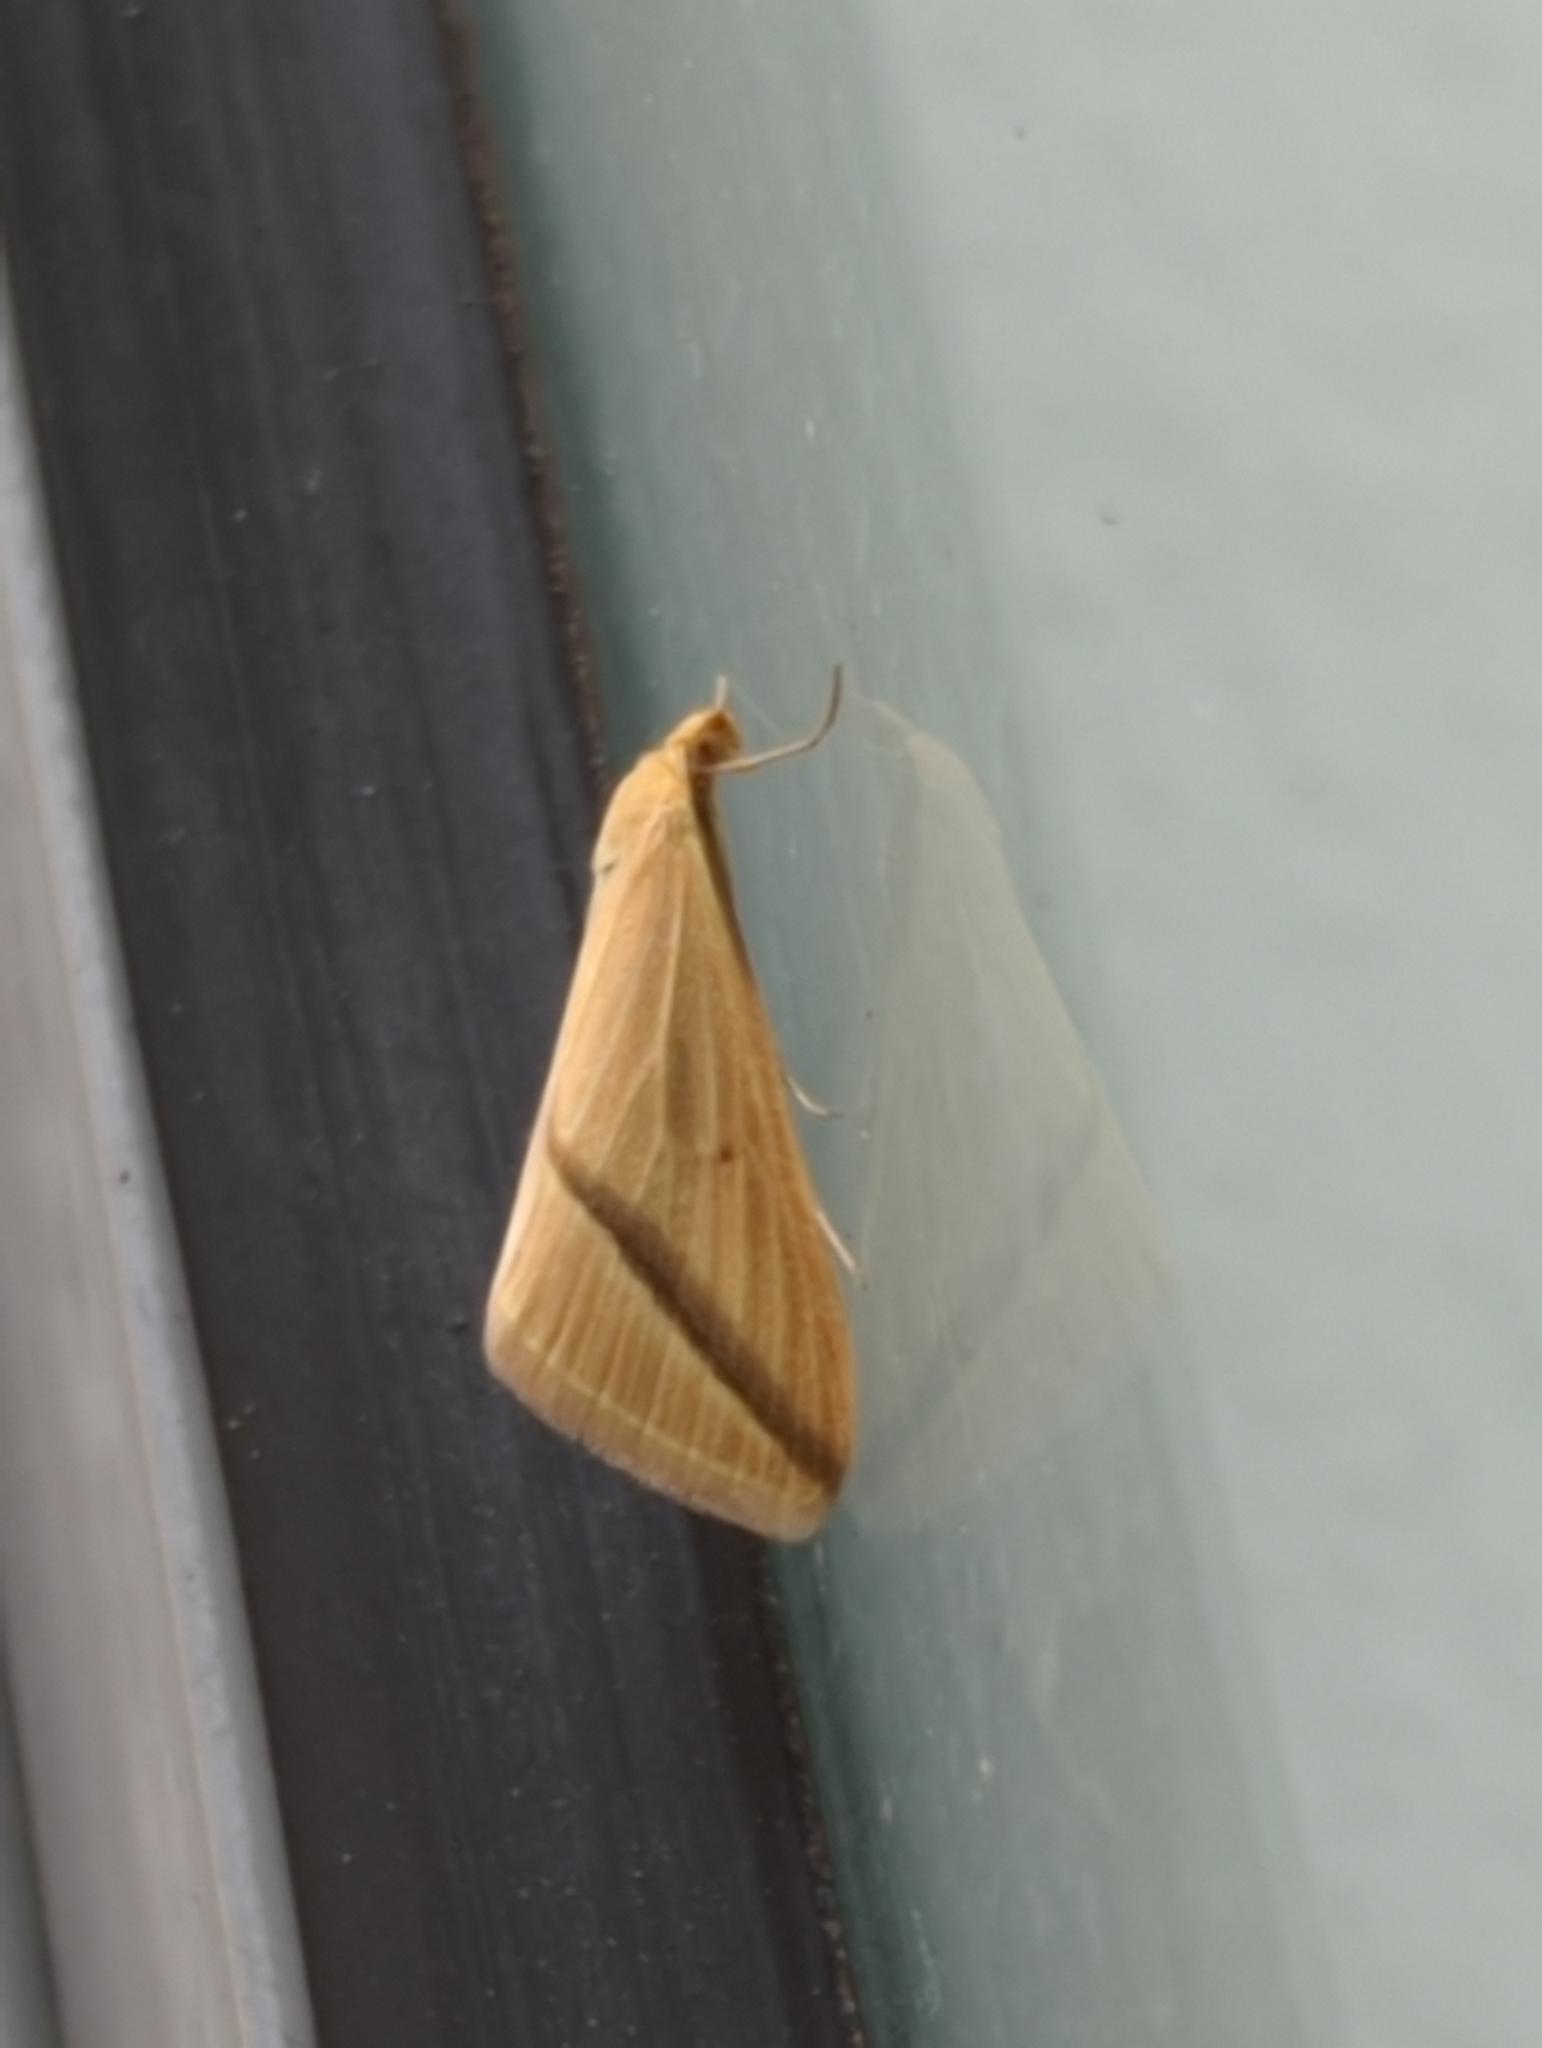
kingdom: Animalia
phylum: Arthropoda
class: Insecta
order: Lepidoptera
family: Geometridae
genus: Rhodometra
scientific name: Rhodometra sacraria
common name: Vestal
